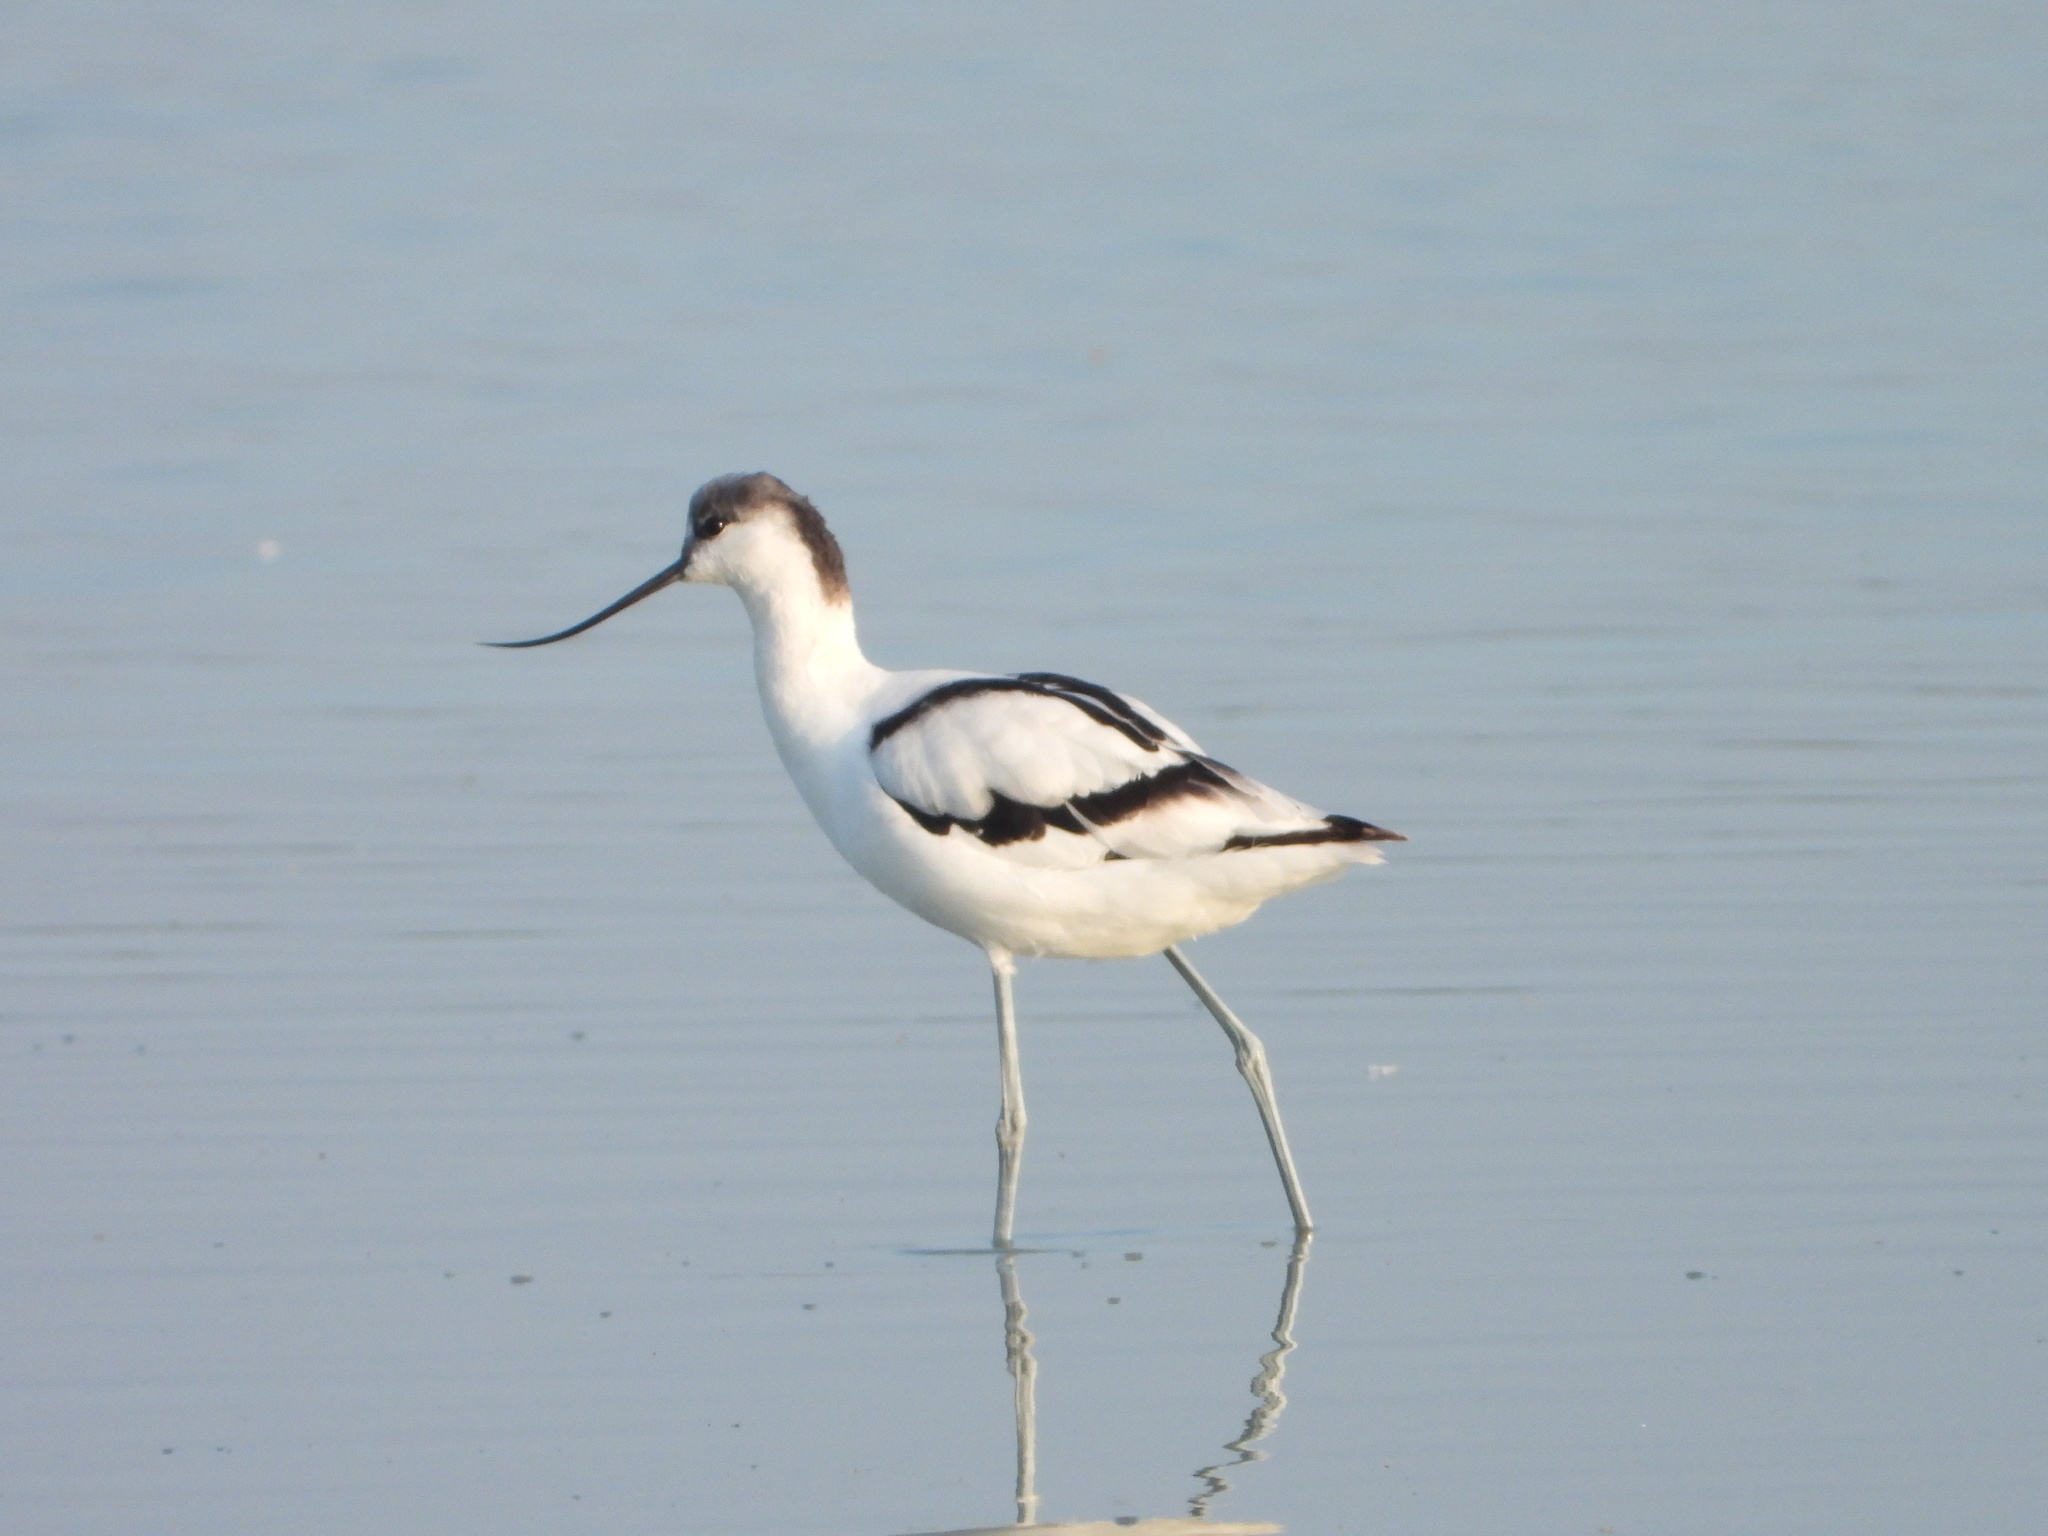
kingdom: Animalia
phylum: Chordata
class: Aves
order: Charadriiformes
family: Recurvirostridae
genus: Recurvirostra
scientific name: Recurvirostra avosetta
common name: Pied avocet
